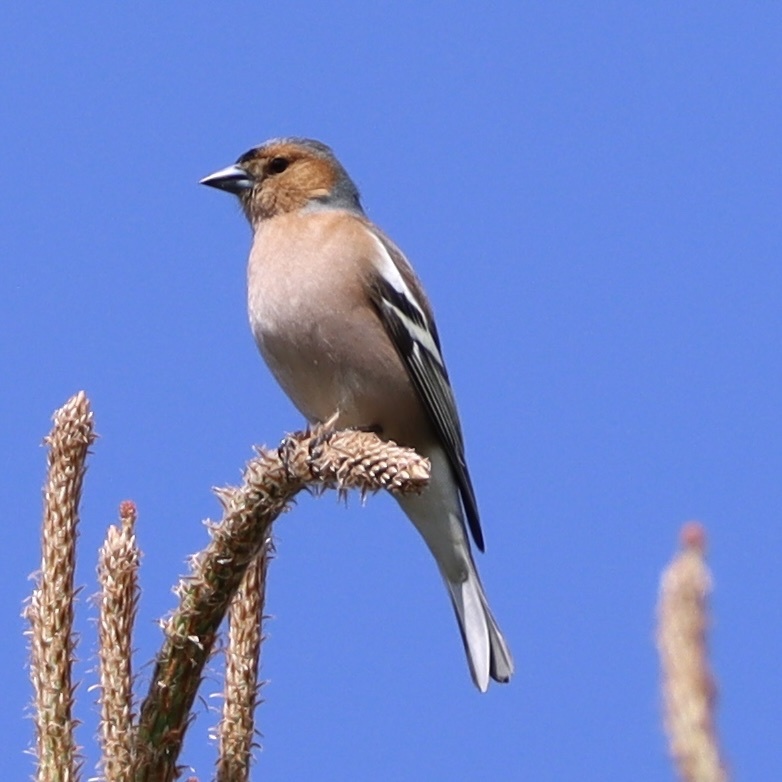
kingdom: Animalia
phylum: Chordata
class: Aves
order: Passeriformes
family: Fringillidae
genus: Fringilla
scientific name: Fringilla coelebs
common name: Common chaffinch
